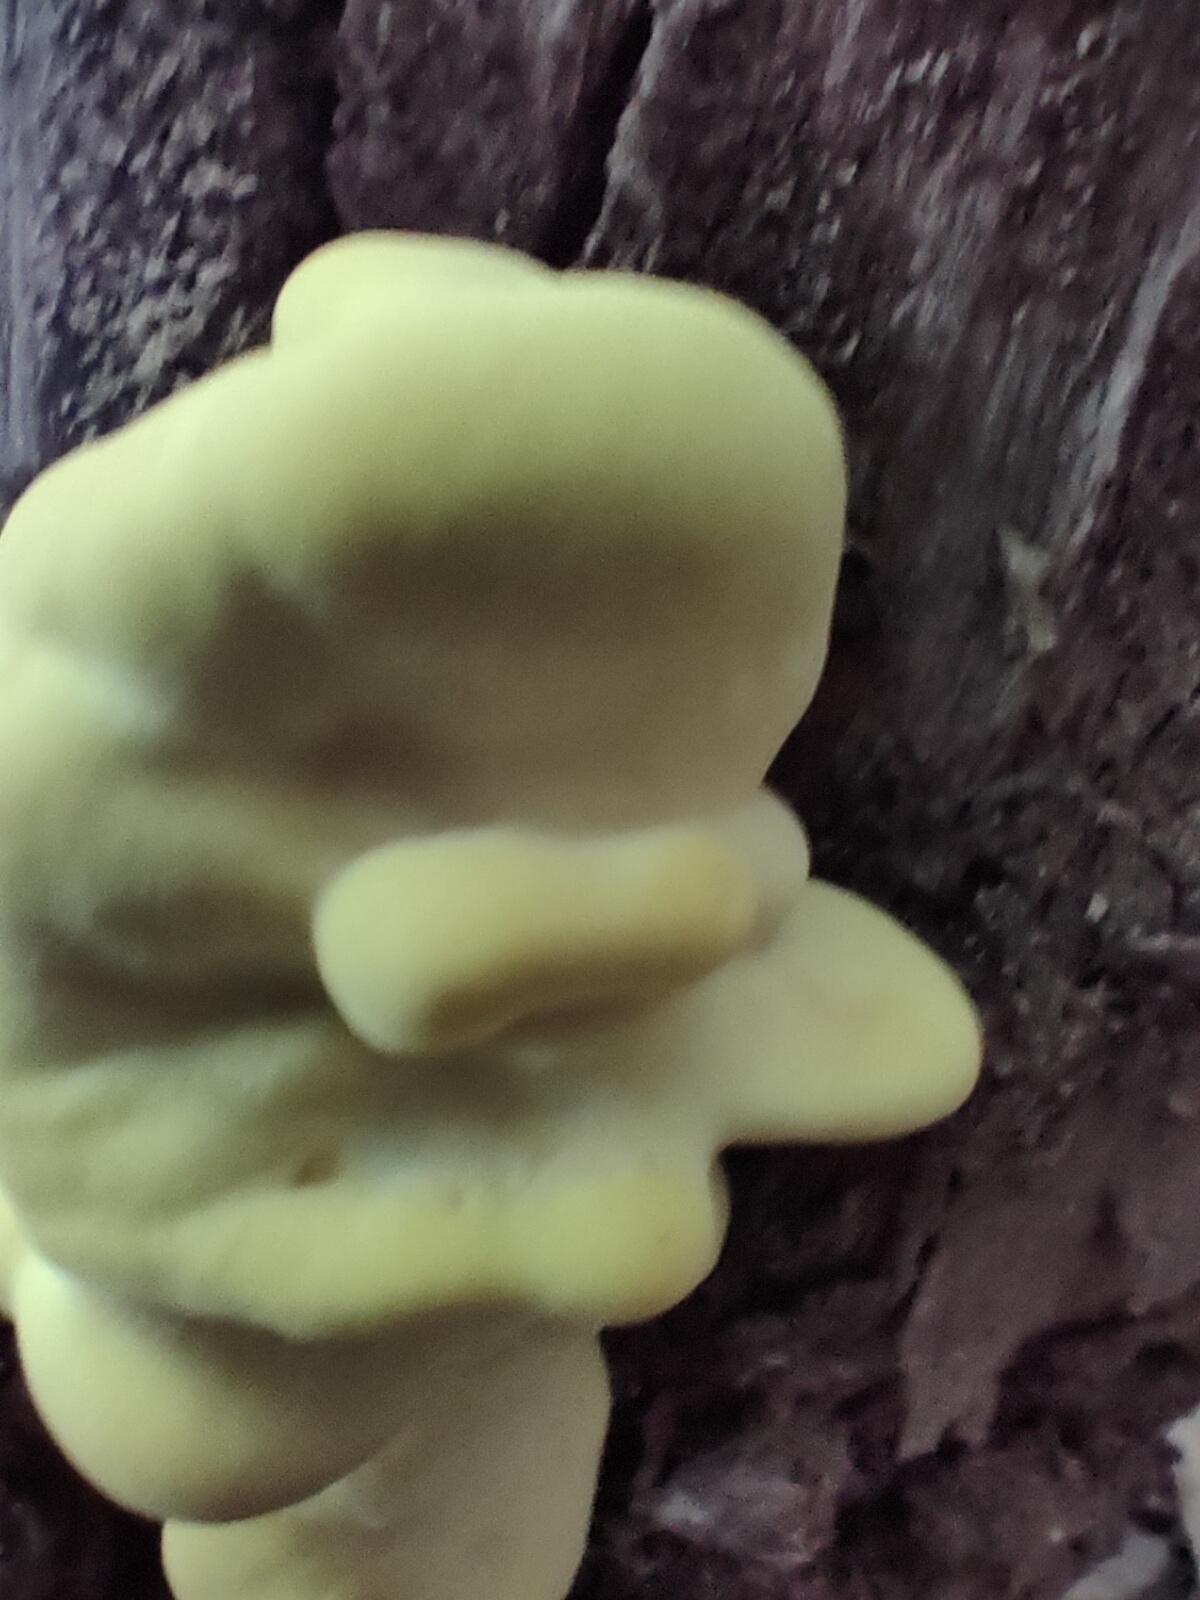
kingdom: Fungi
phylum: Basidiomycota
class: Agaricomycetes
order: Polyporales
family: Laetiporaceae
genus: Laetiporus
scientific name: Laetiporus sulphureus
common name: Chicken of the woods
